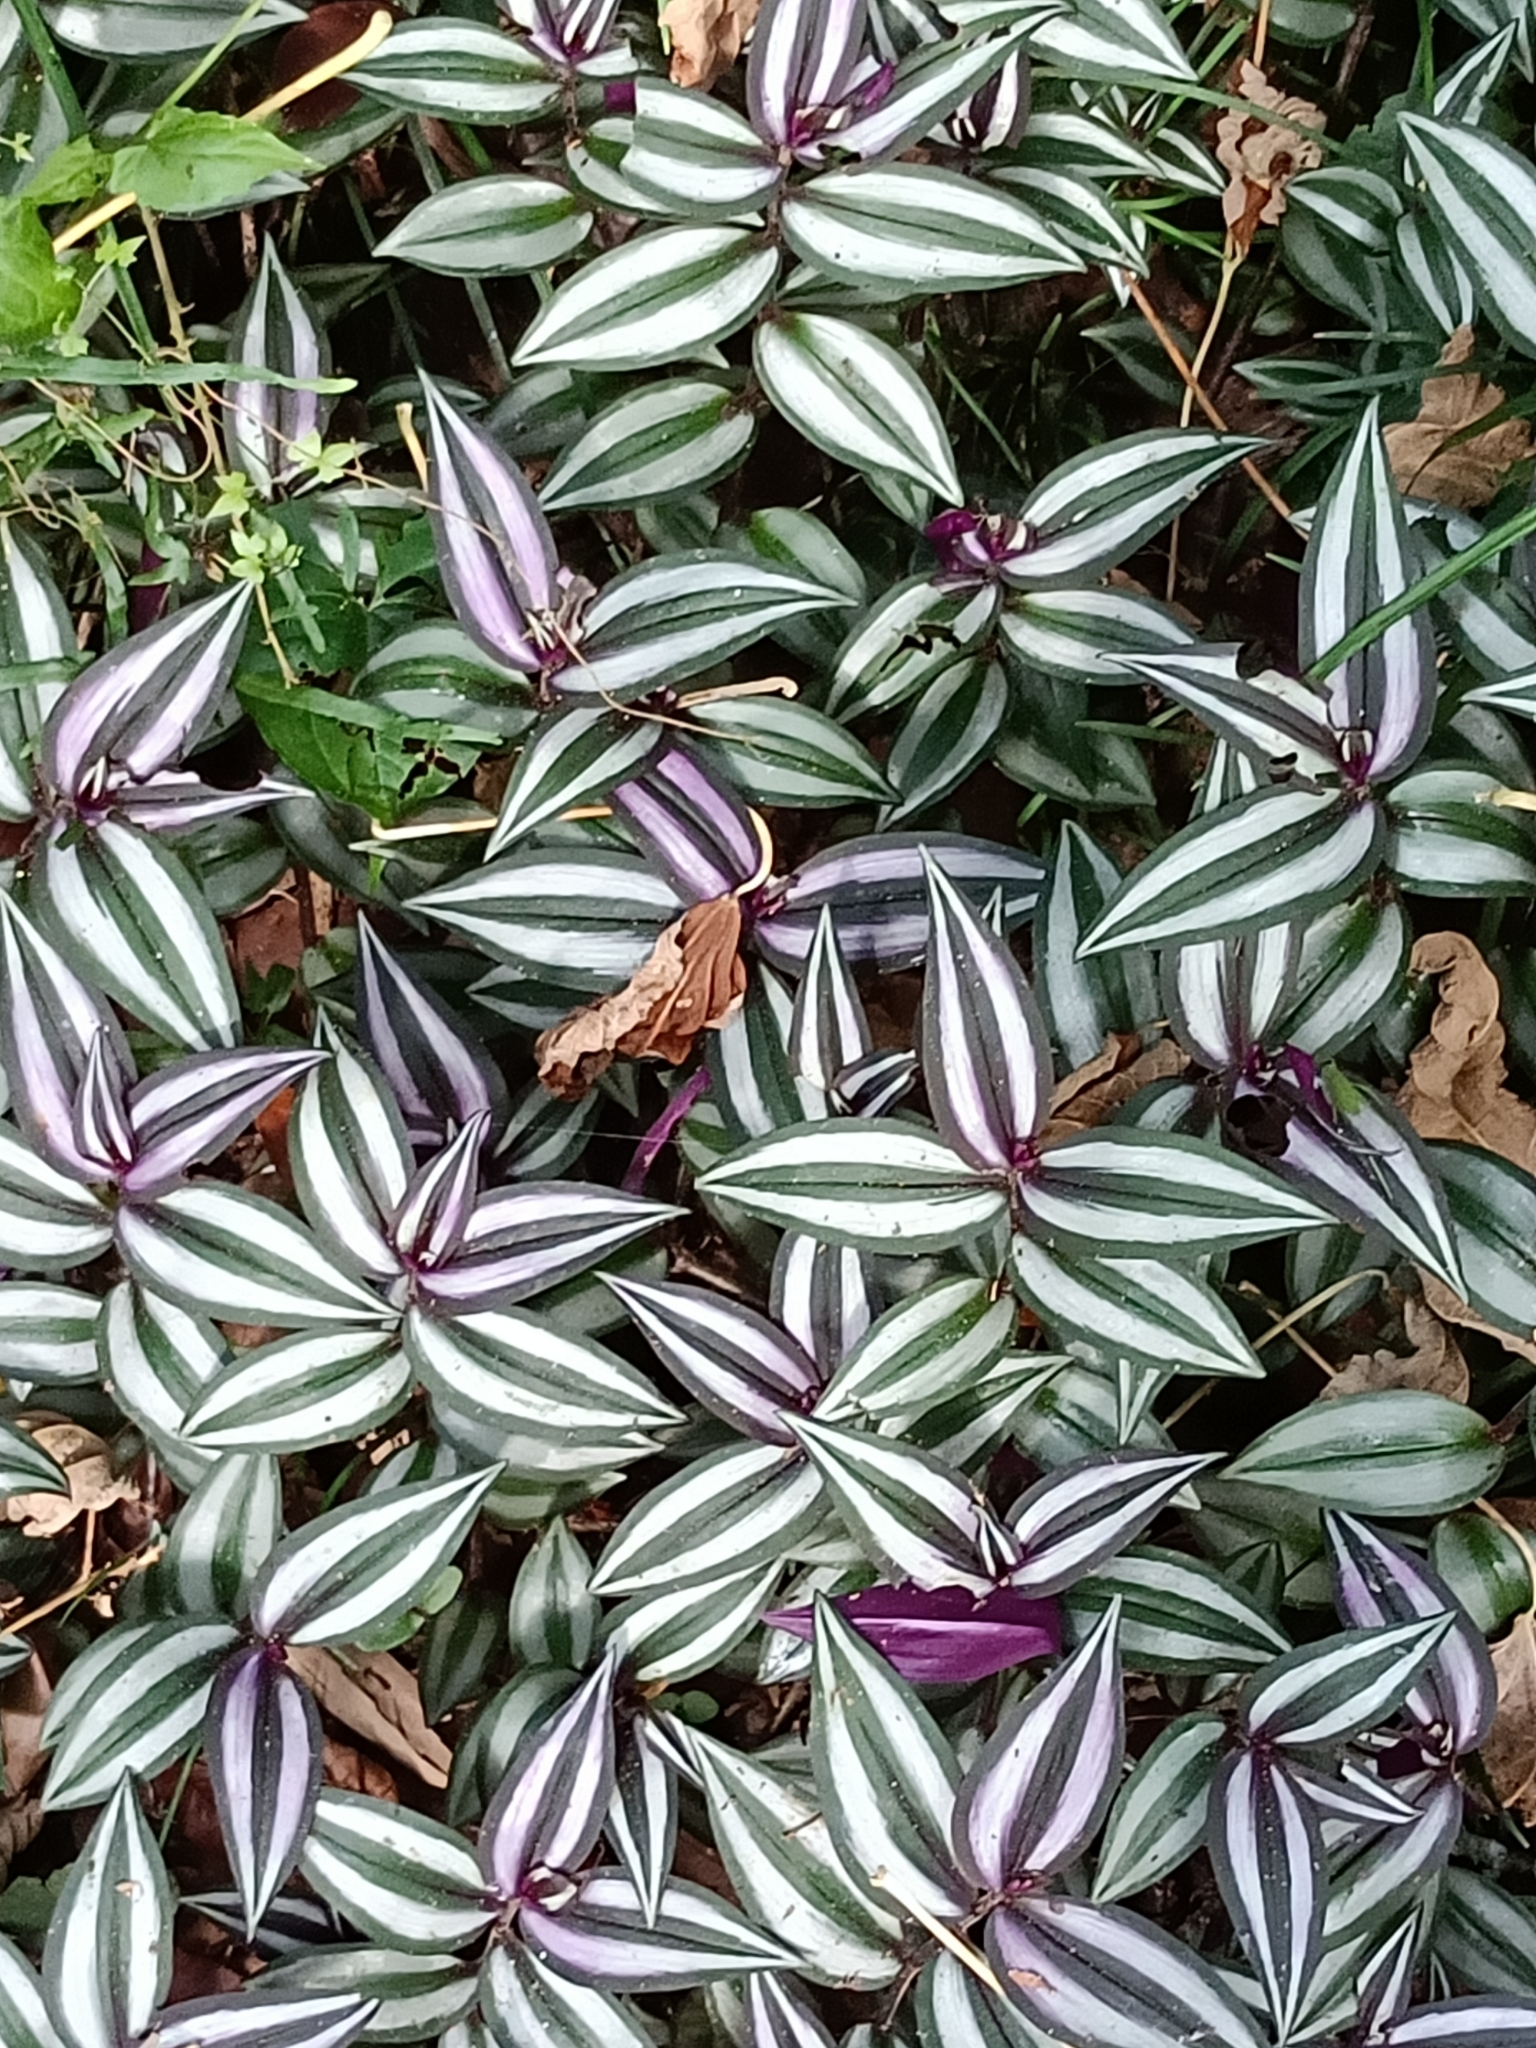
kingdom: Plantae
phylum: Tracheophyta
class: Liliopsida
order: Commelinales
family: Commelinaceae
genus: Tradescantia
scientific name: Tradescantia zebrina
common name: Inchplant
